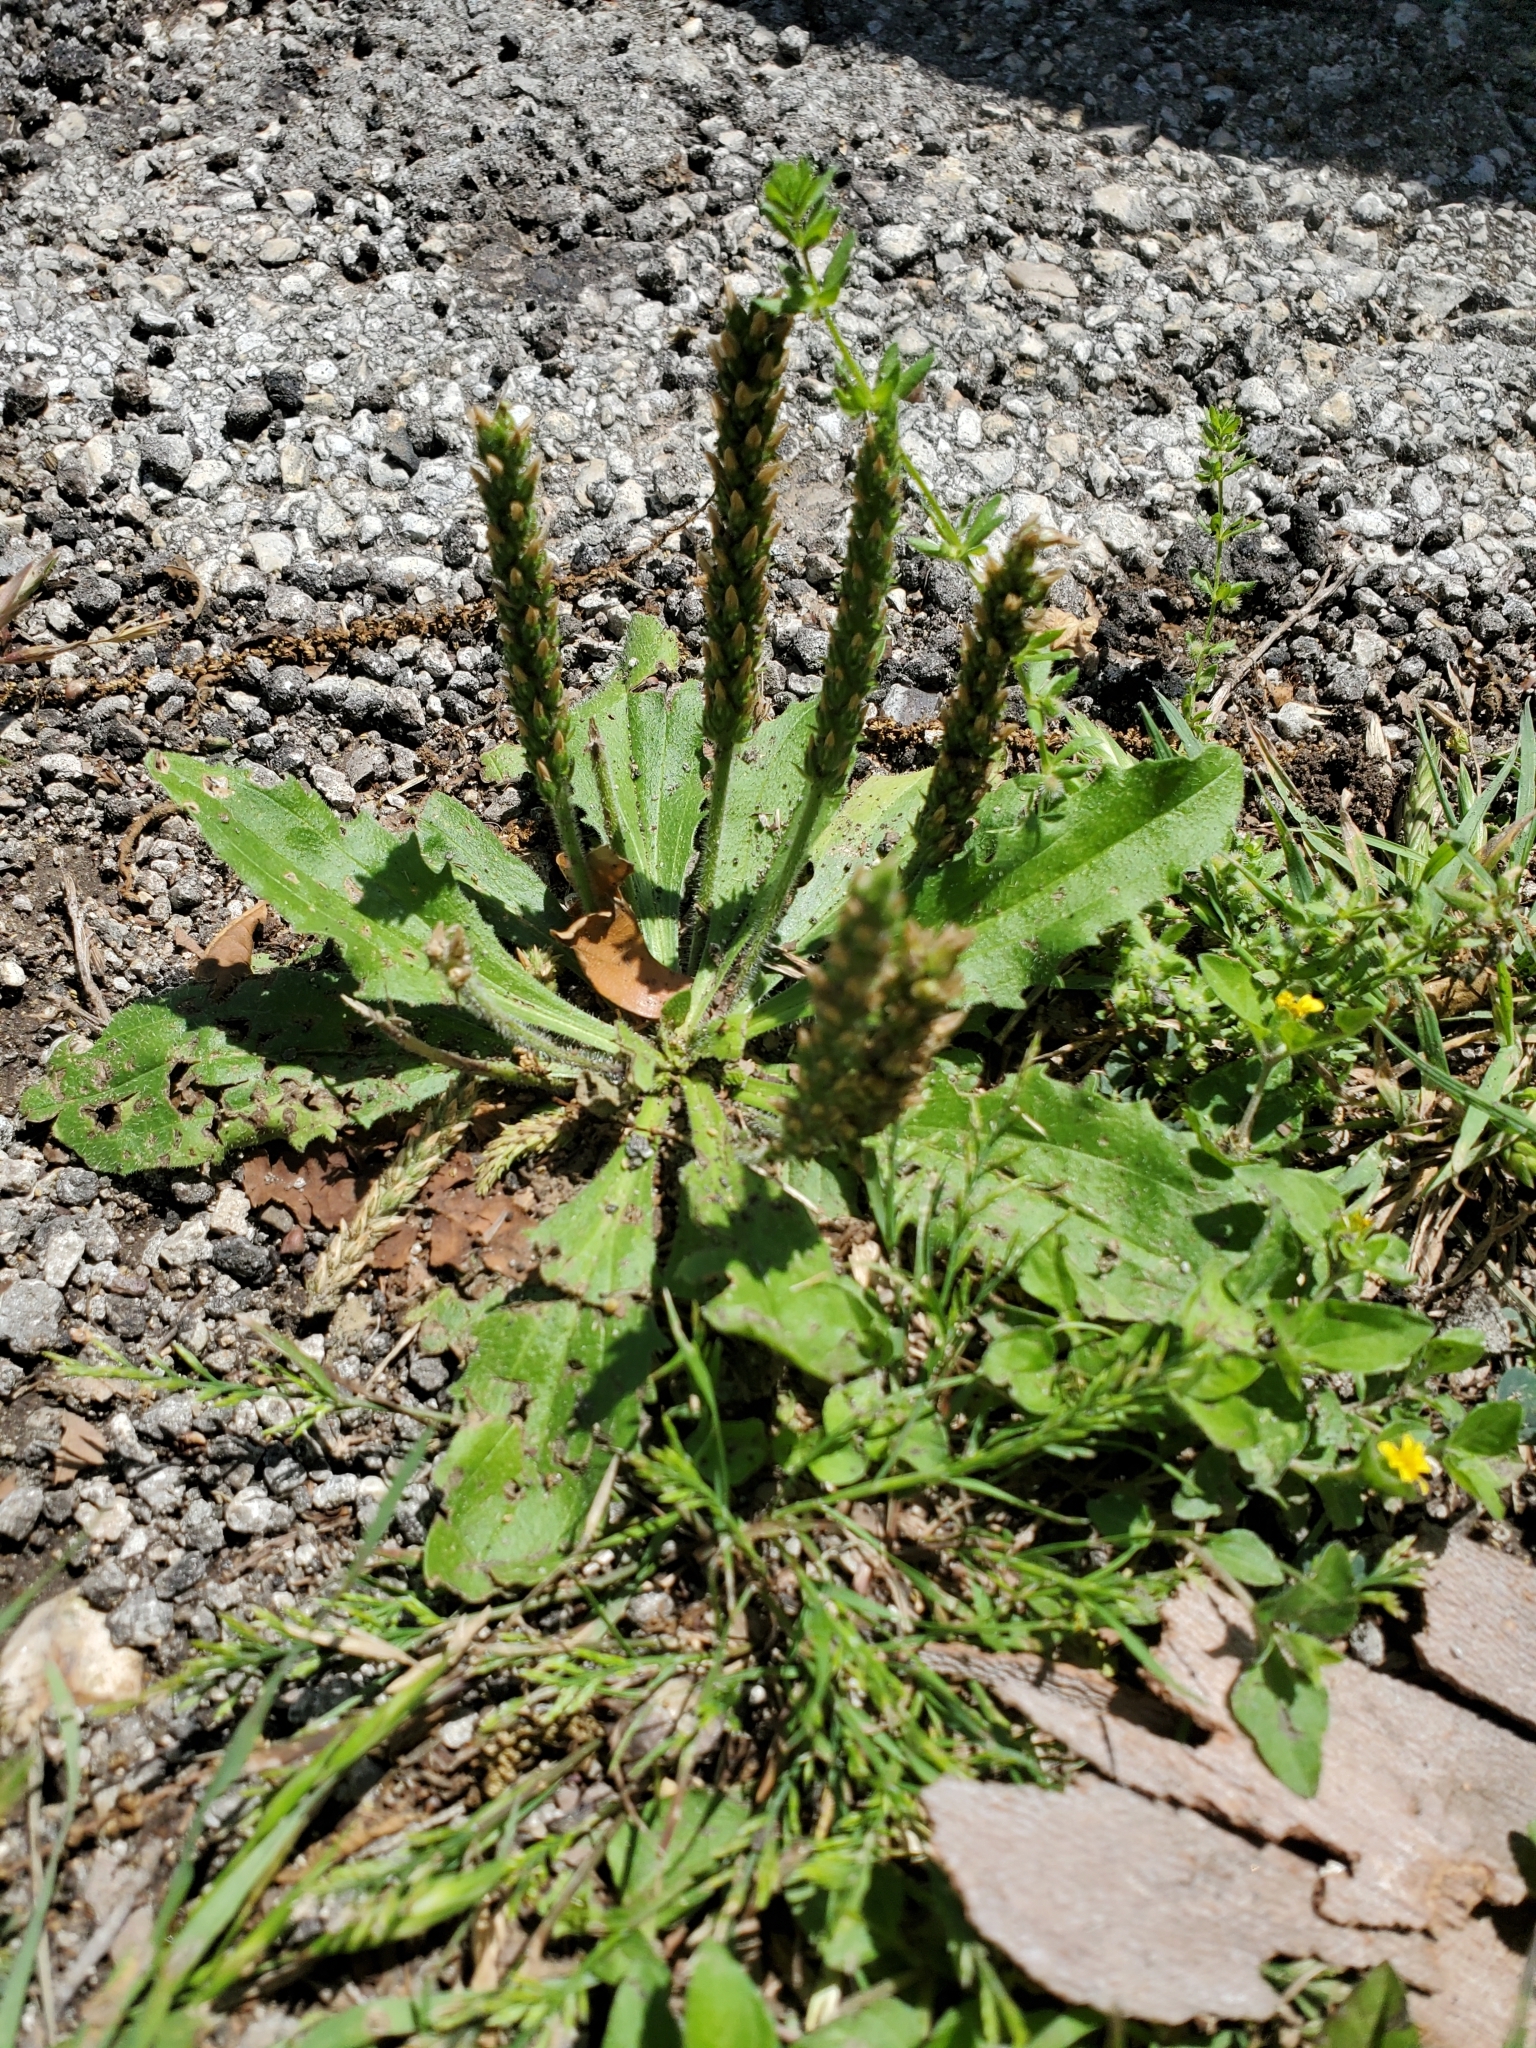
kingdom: Plantae
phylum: Tracheophyta
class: Magnoliopsida
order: Lamiales
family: Plantaginaceae
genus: Plantago
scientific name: Plantago rhodosperma
